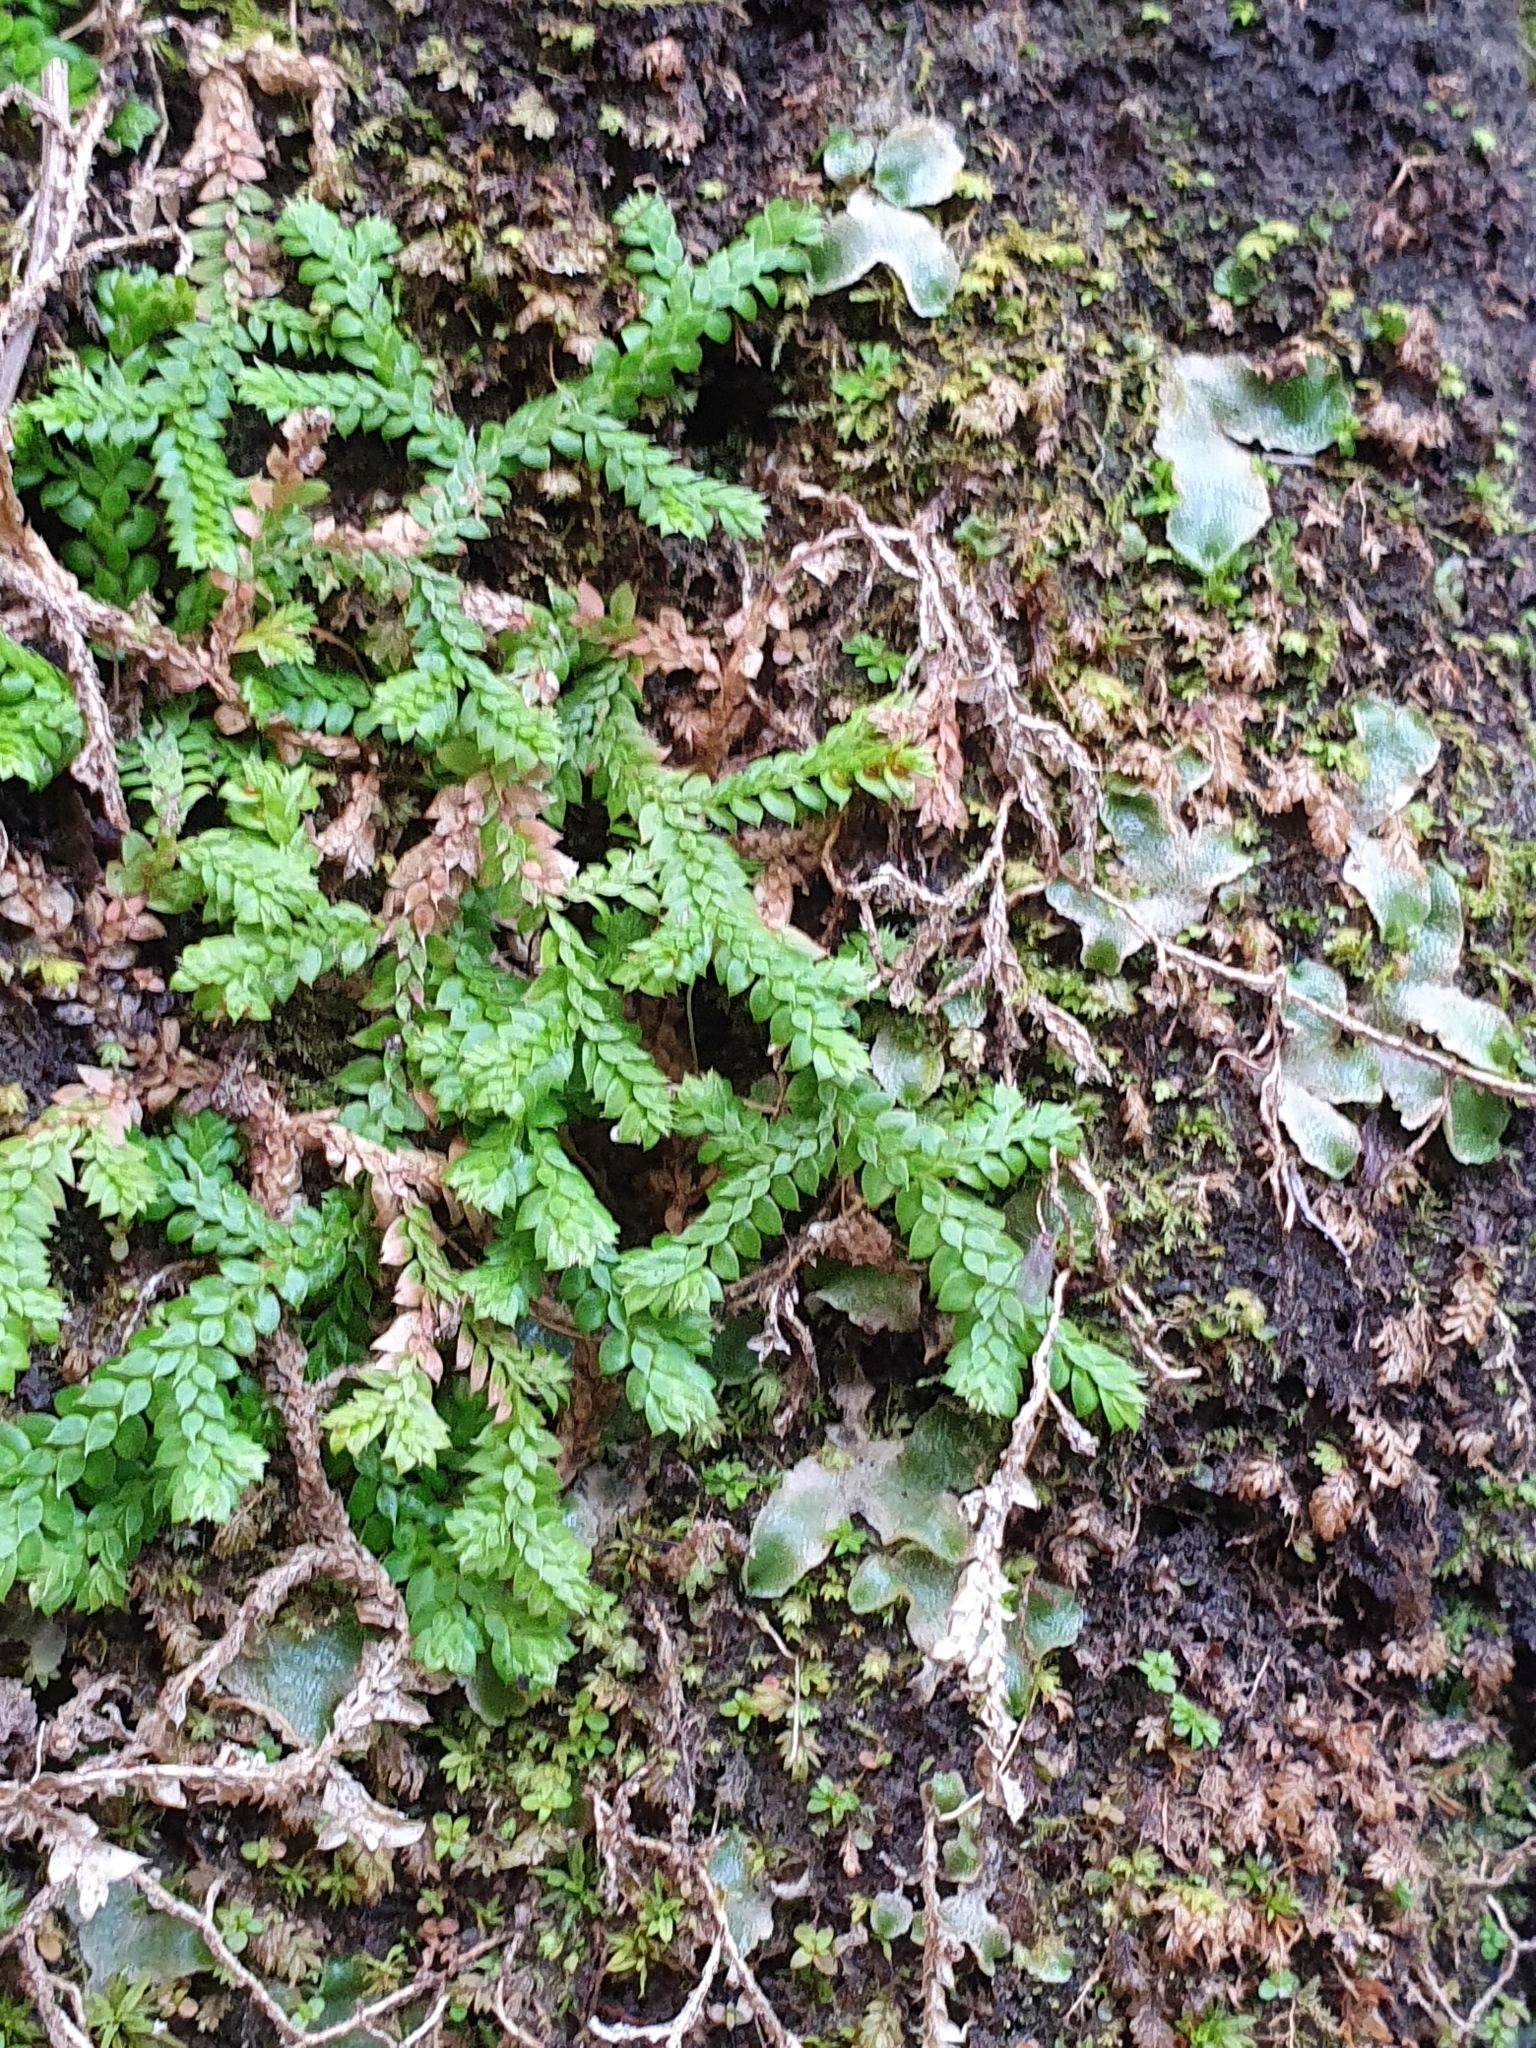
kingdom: Plantae
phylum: Tracheophyta
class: Lycopodiopsida
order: Selaginellales
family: Selaginellaceae
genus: Selaginella
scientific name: Selaginella denticulata
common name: Toothed-leaved clubmoss
